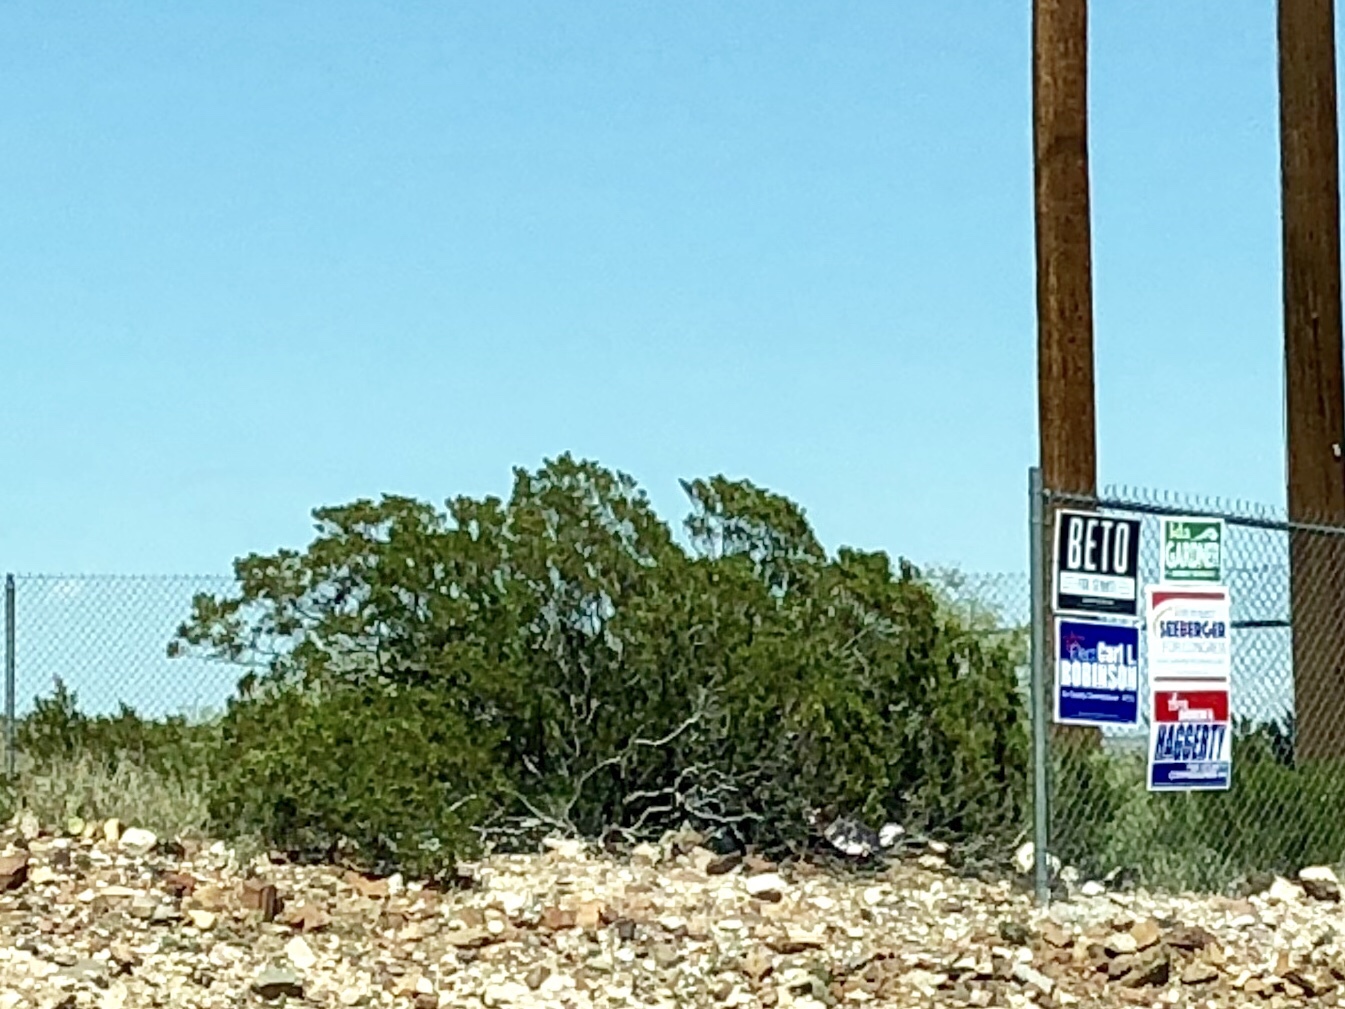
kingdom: Plantae
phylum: Tracheophyta
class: Magnoliopsida
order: Zygophyllales
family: Zygophyllaceae
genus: Larrea
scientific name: Larrea tridentata
